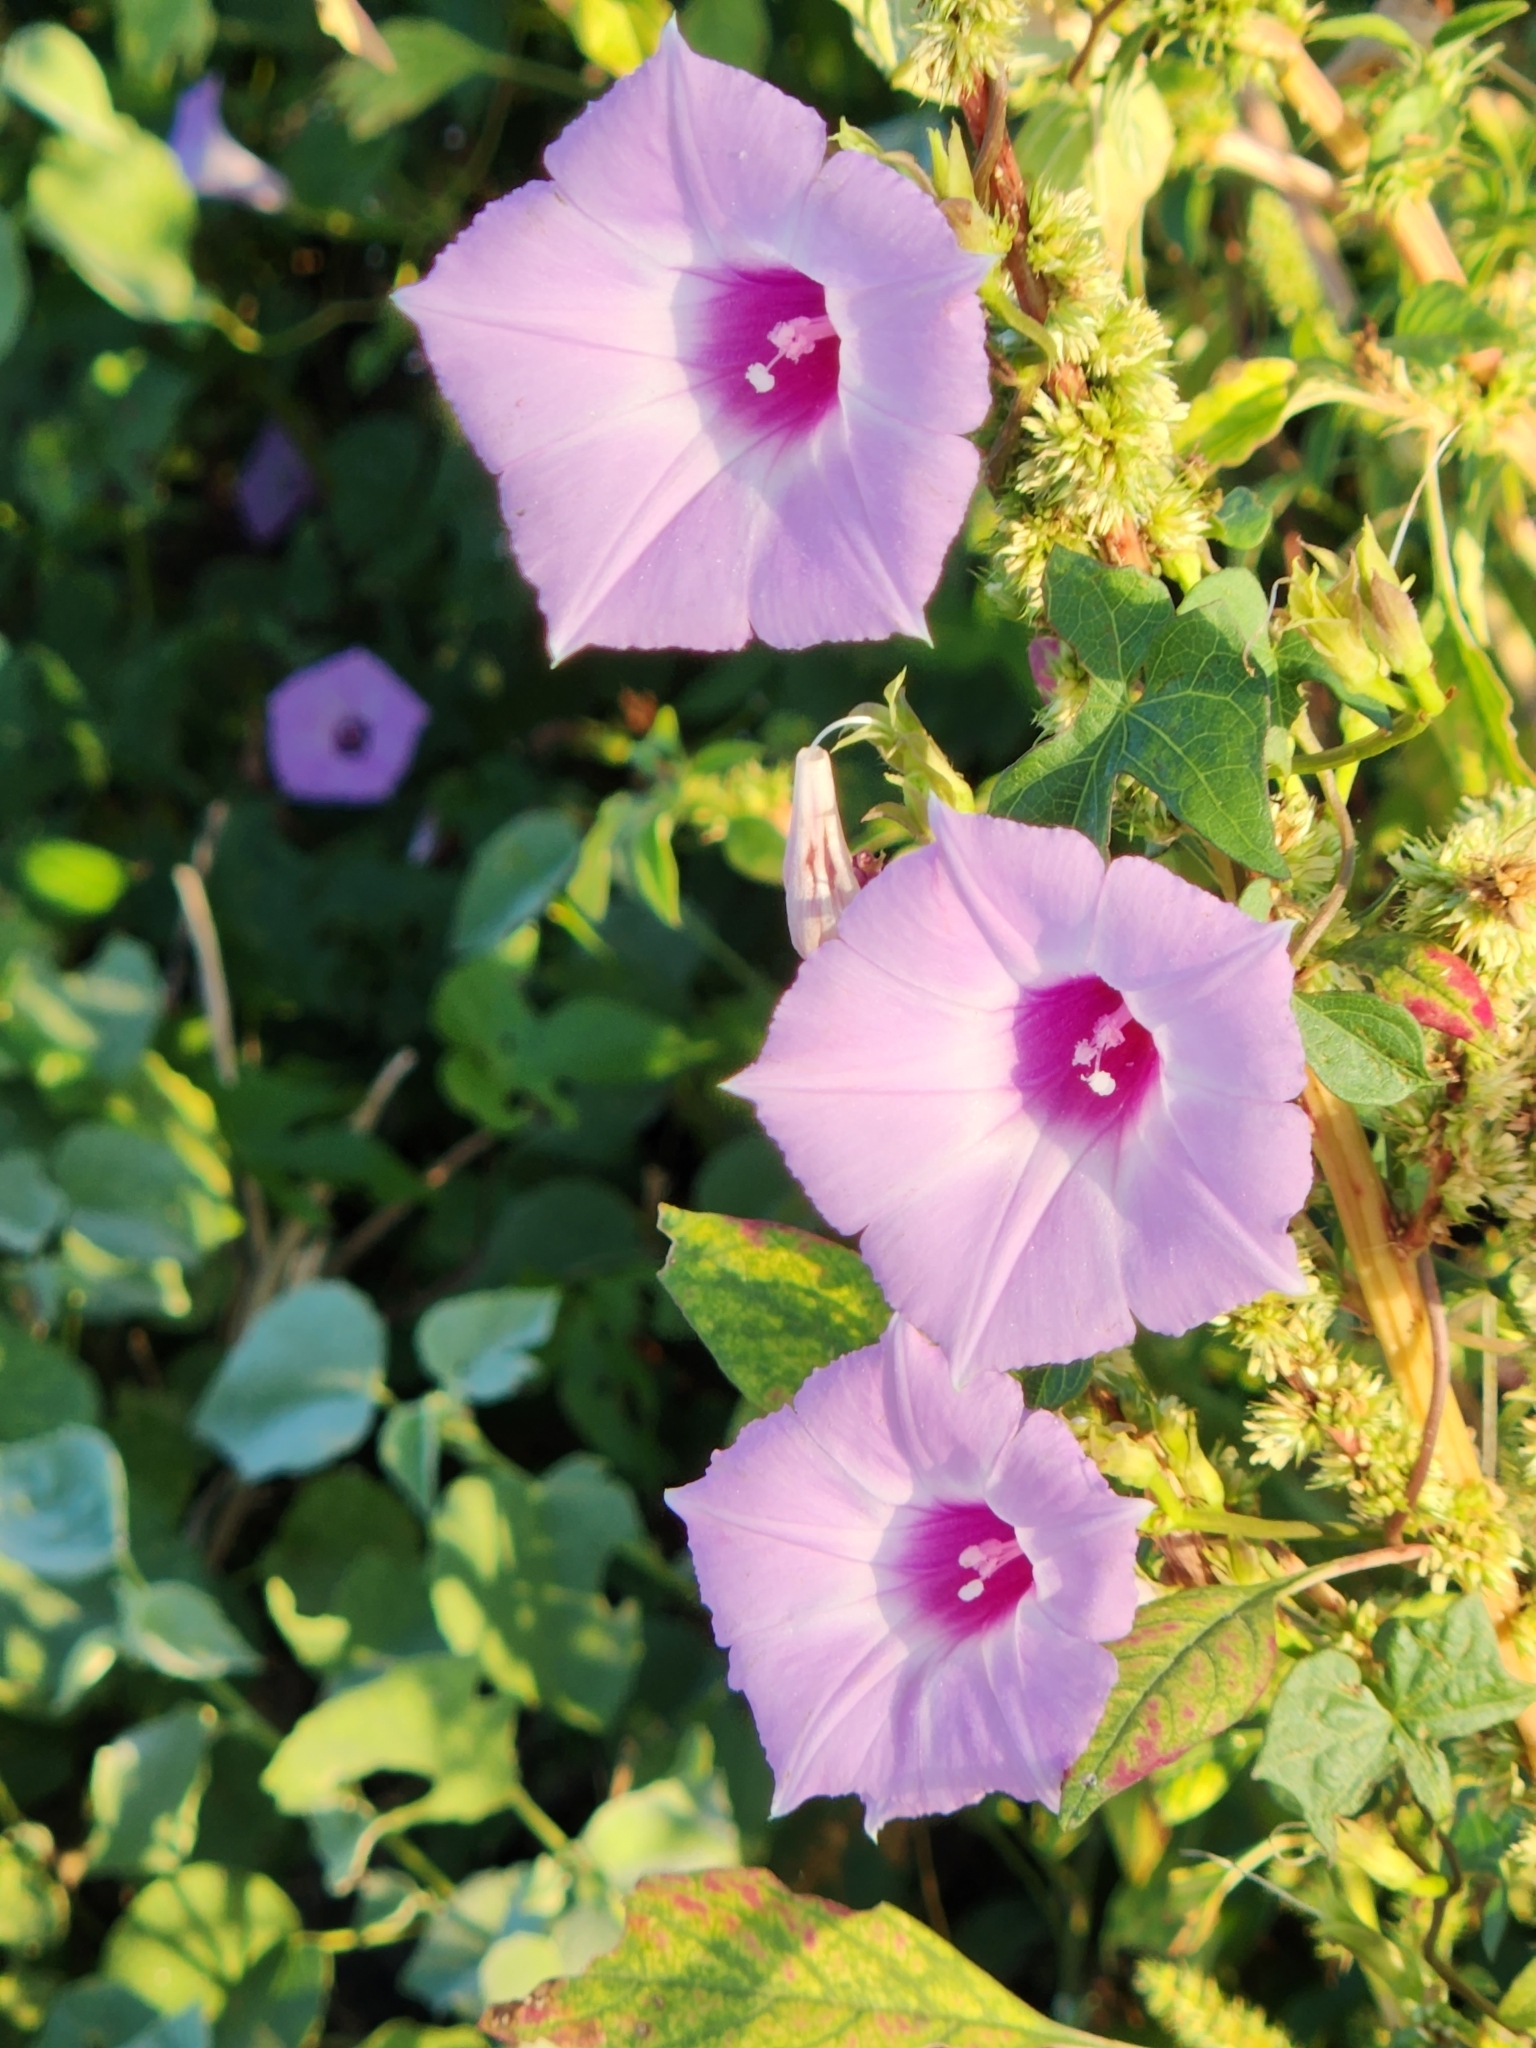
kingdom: Plantae
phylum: Tracheophyta
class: Magnoliopsida
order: Solanales
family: Convolvulaceae
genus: Ipomoea
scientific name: Ipomoea cordatotriloba
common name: Cotton morning glory
